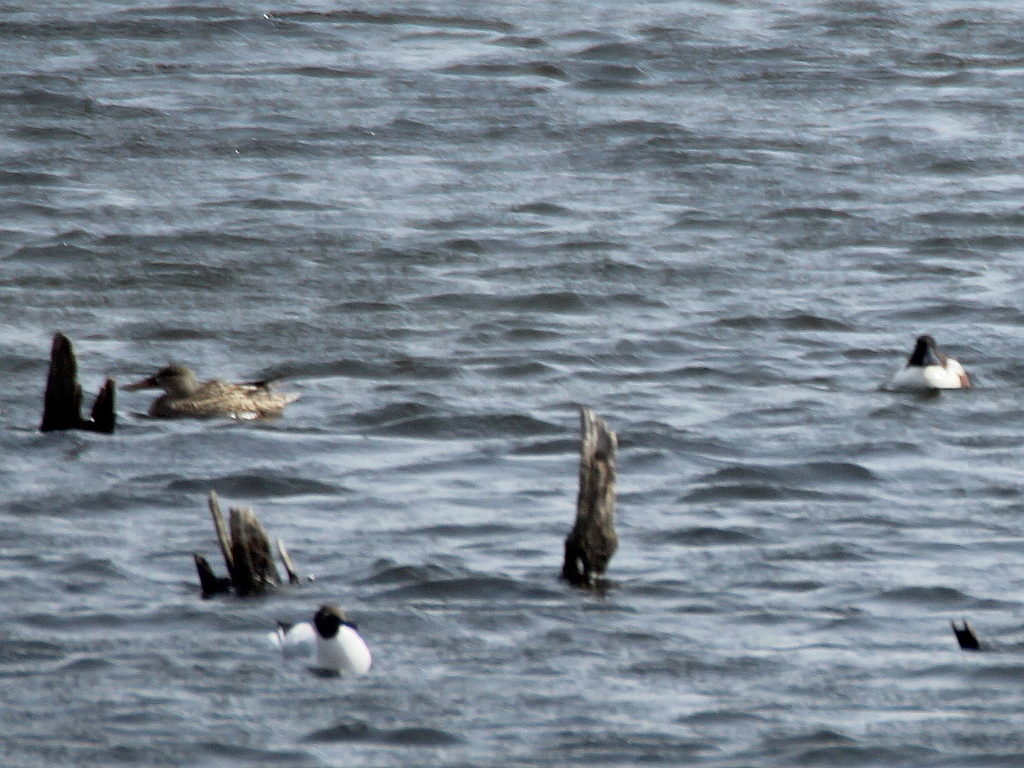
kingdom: Animalia
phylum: Chordata
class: Aves
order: Anseriformes
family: Anatidae
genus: Spatula
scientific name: Spatula clypeata
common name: Northern shoveler
